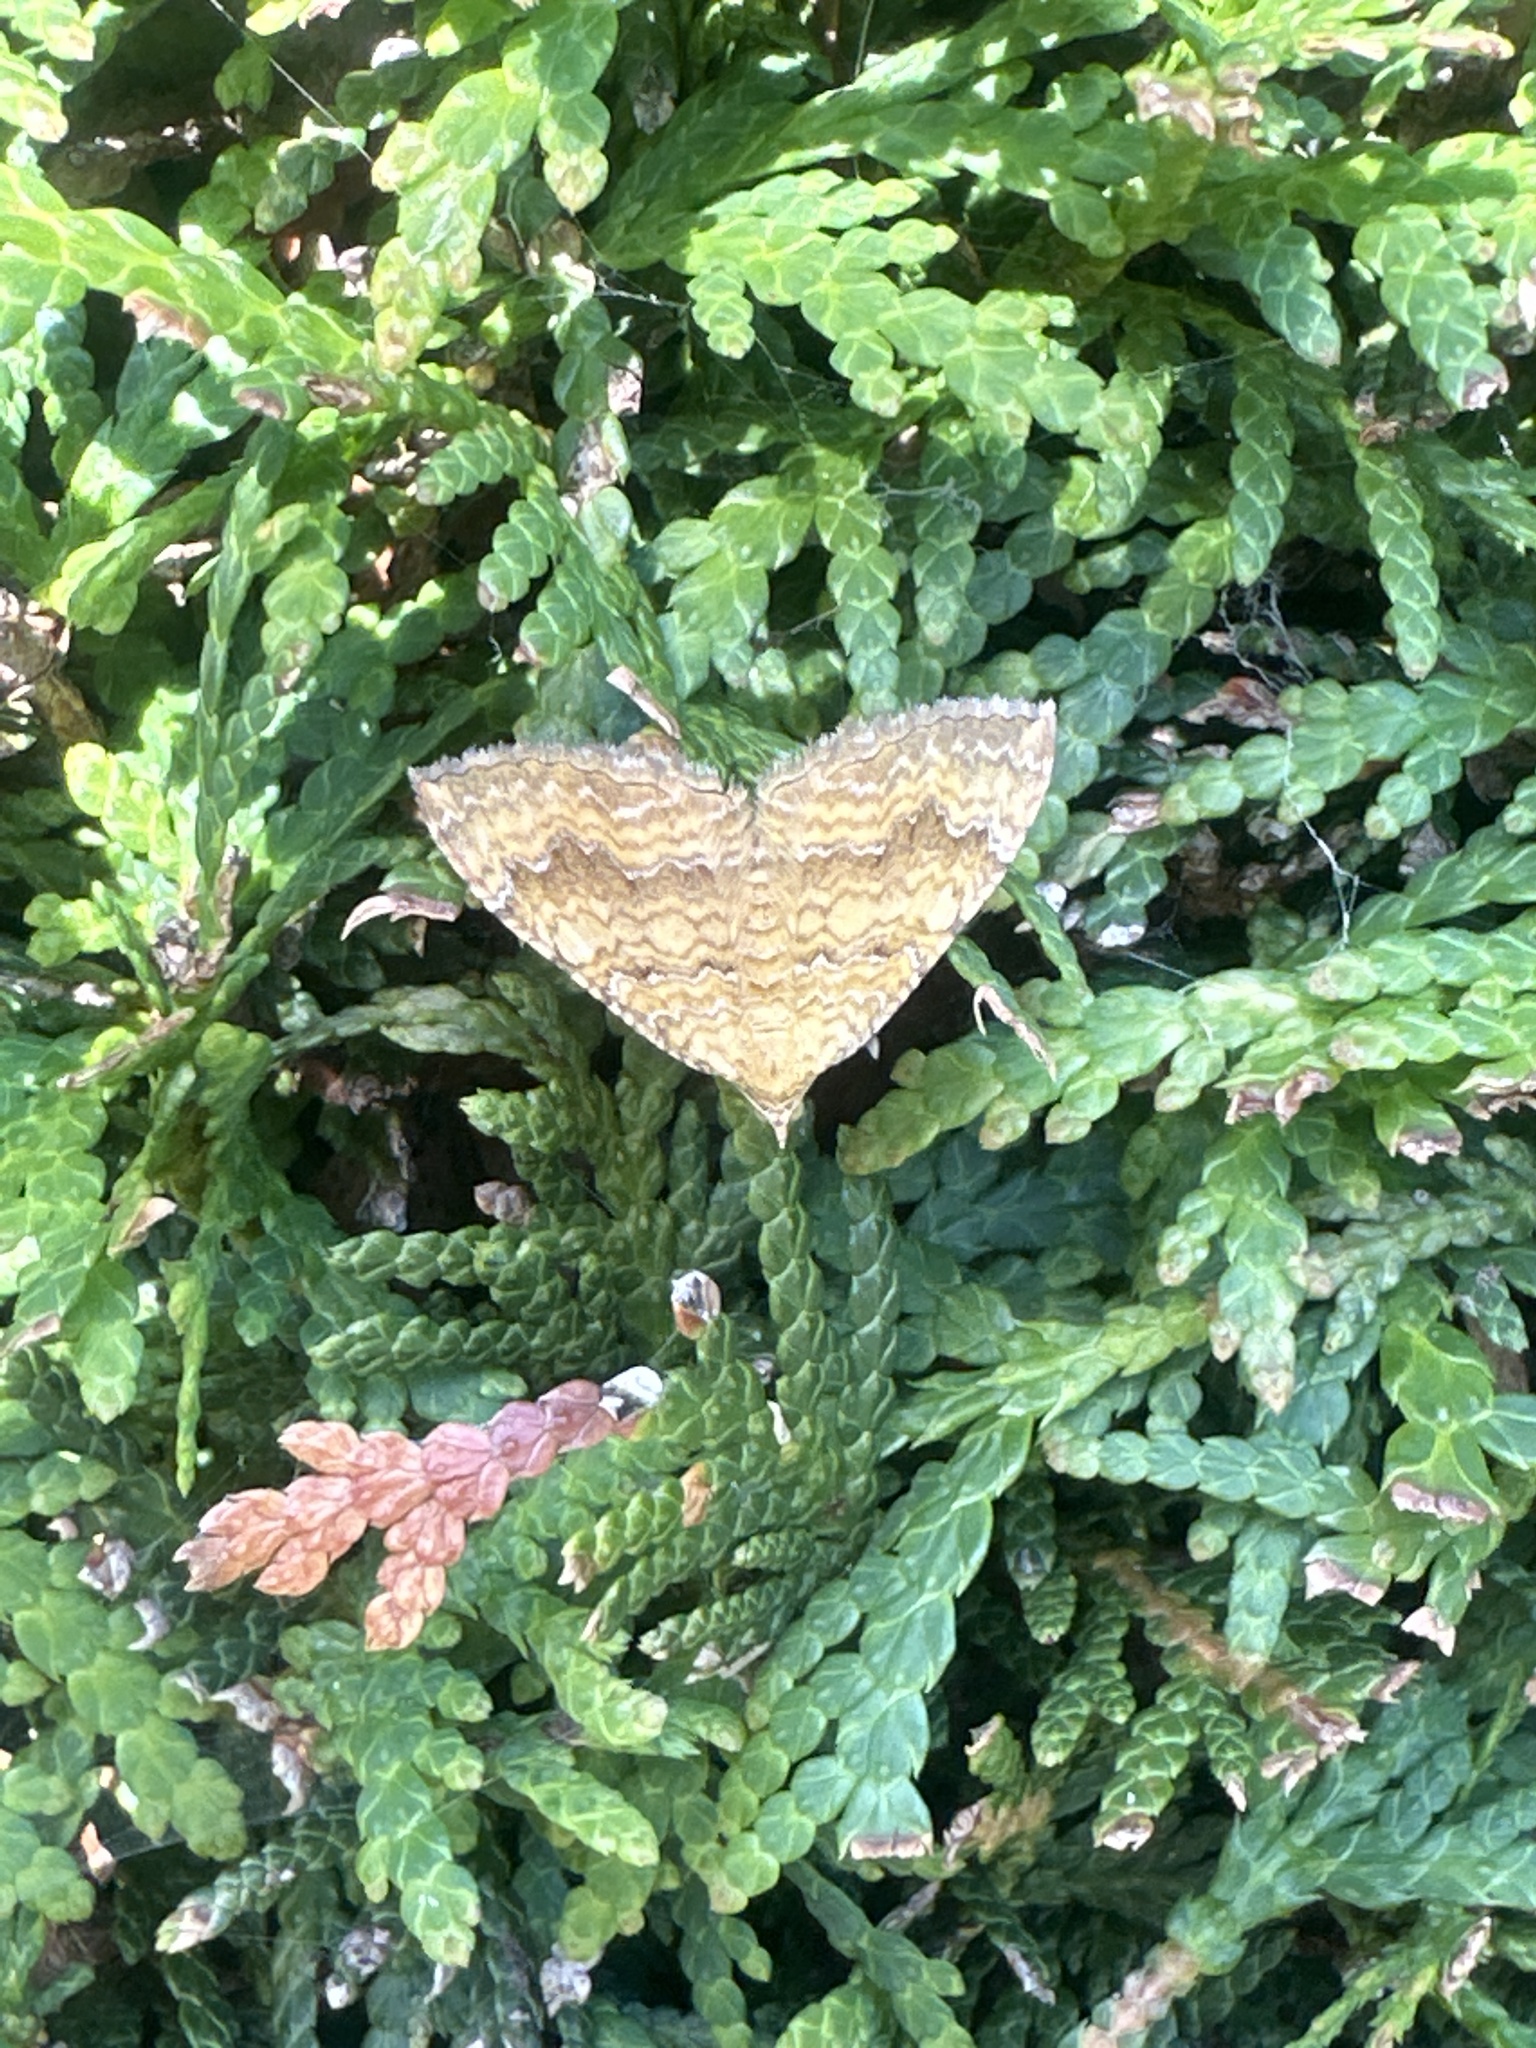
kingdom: Animalia
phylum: Arthropoda
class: Insecta
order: Lepidoptera
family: Geometridae
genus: Camptogramma
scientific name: Camptogramma bilineata
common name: Yellow shell
